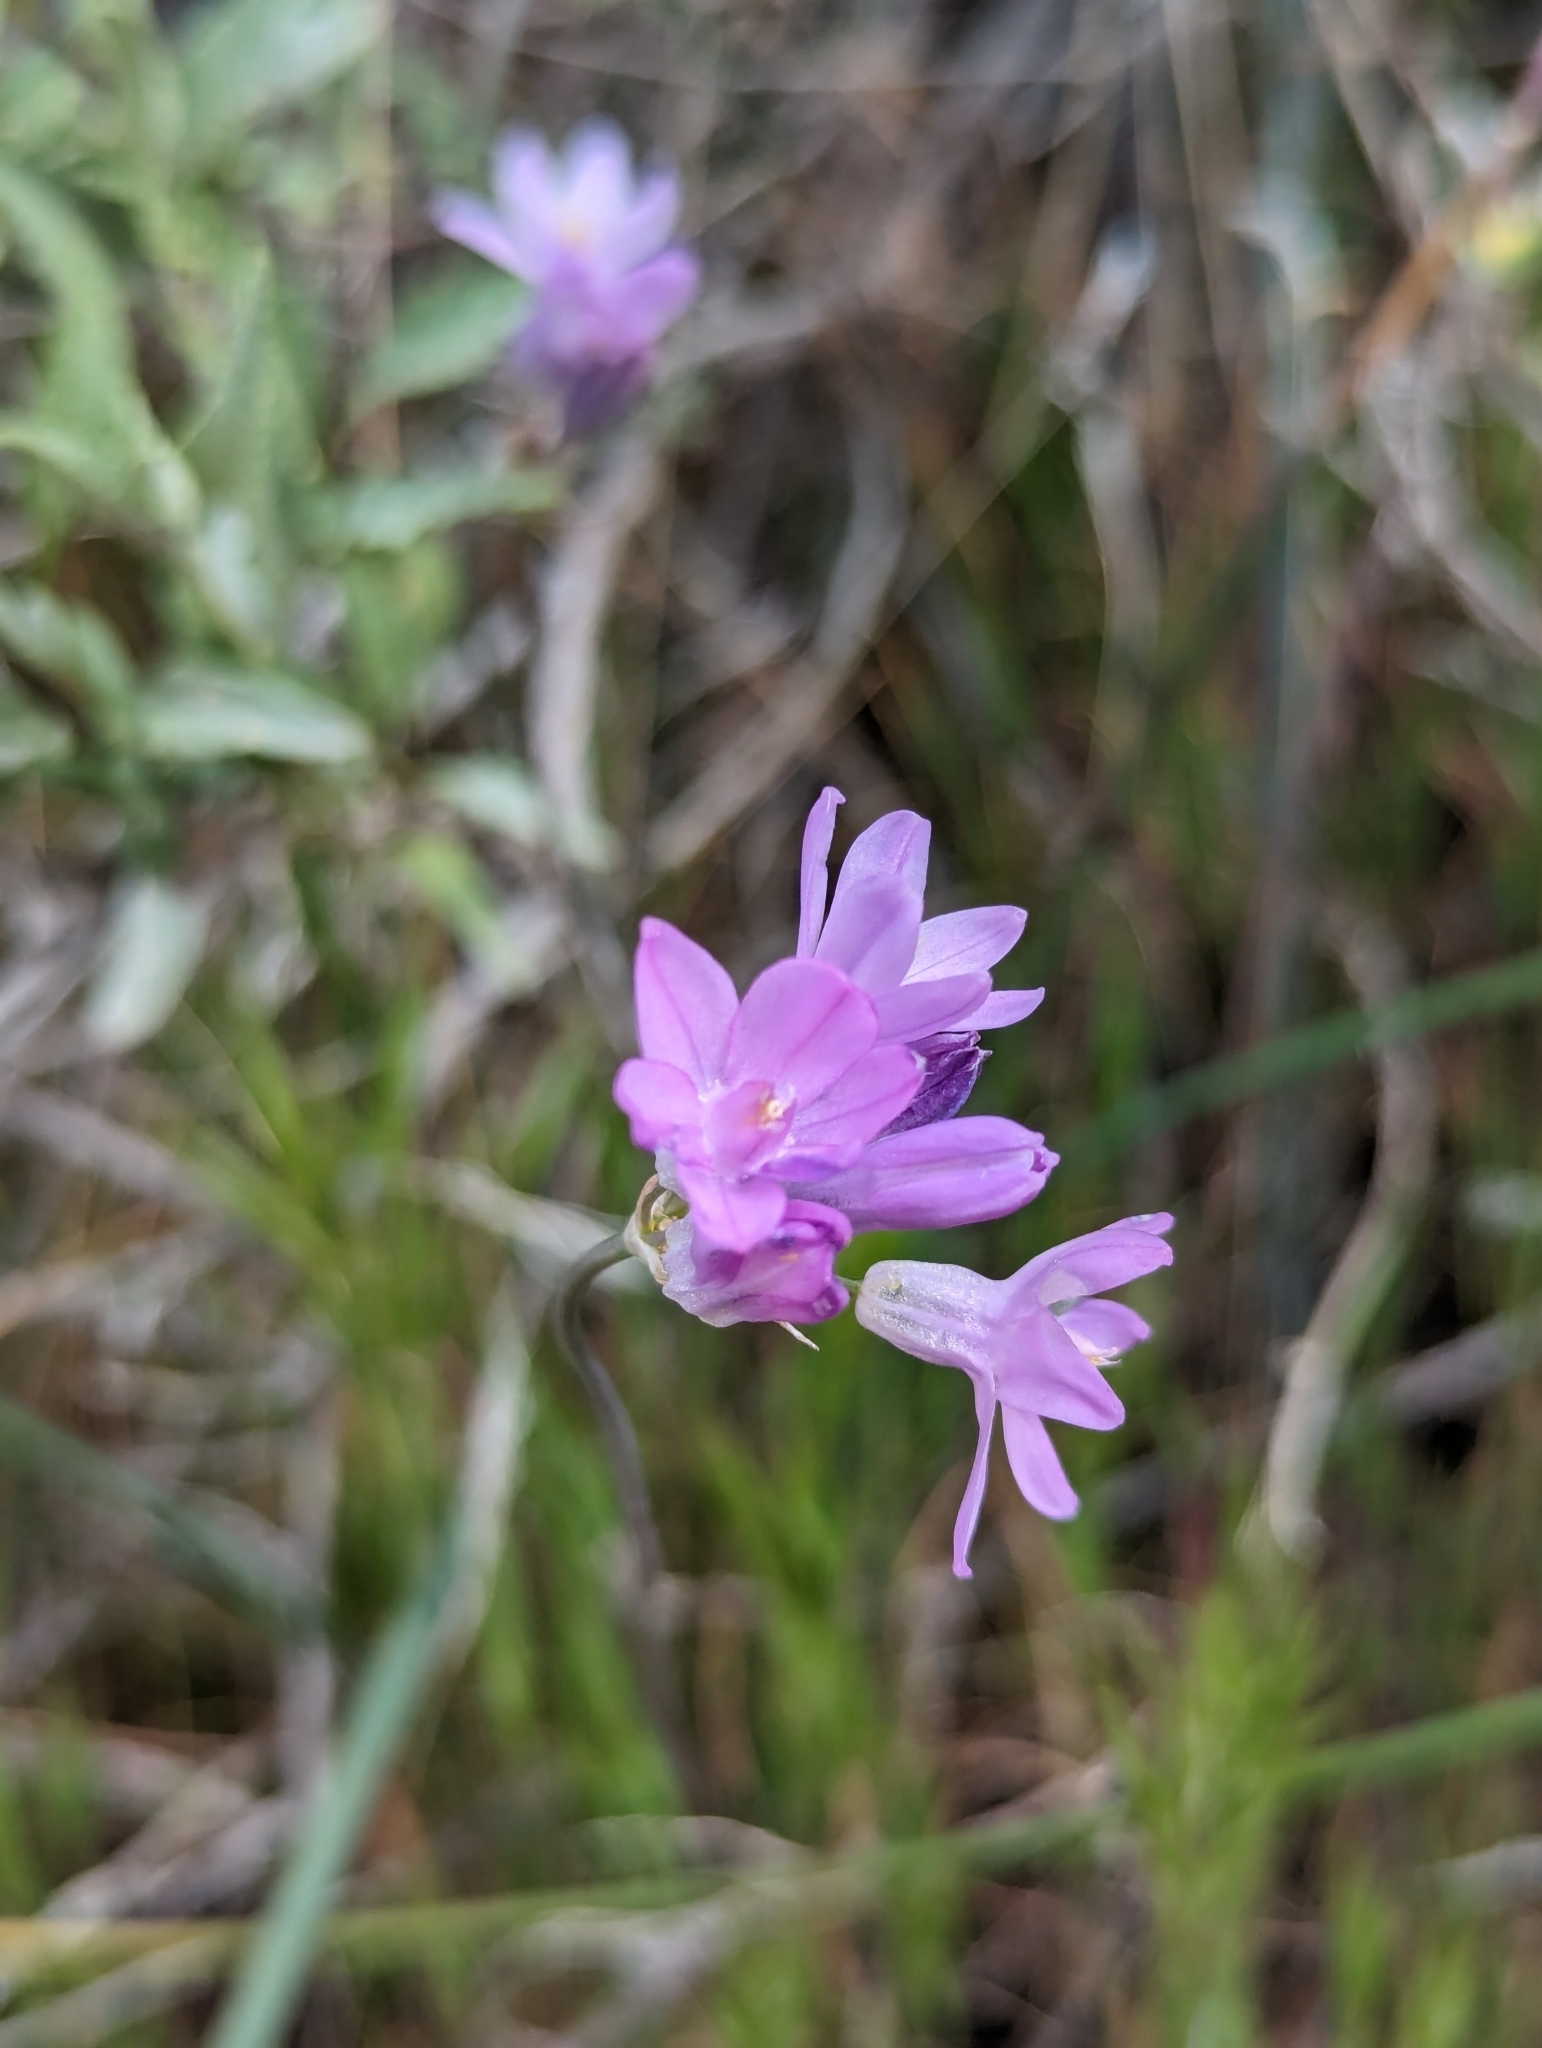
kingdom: Plantae
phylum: Tracheophyta
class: Liliopsida
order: Asparagales
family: Asparagaceae
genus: Dipterostemon
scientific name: Dipterostemon capitatus
